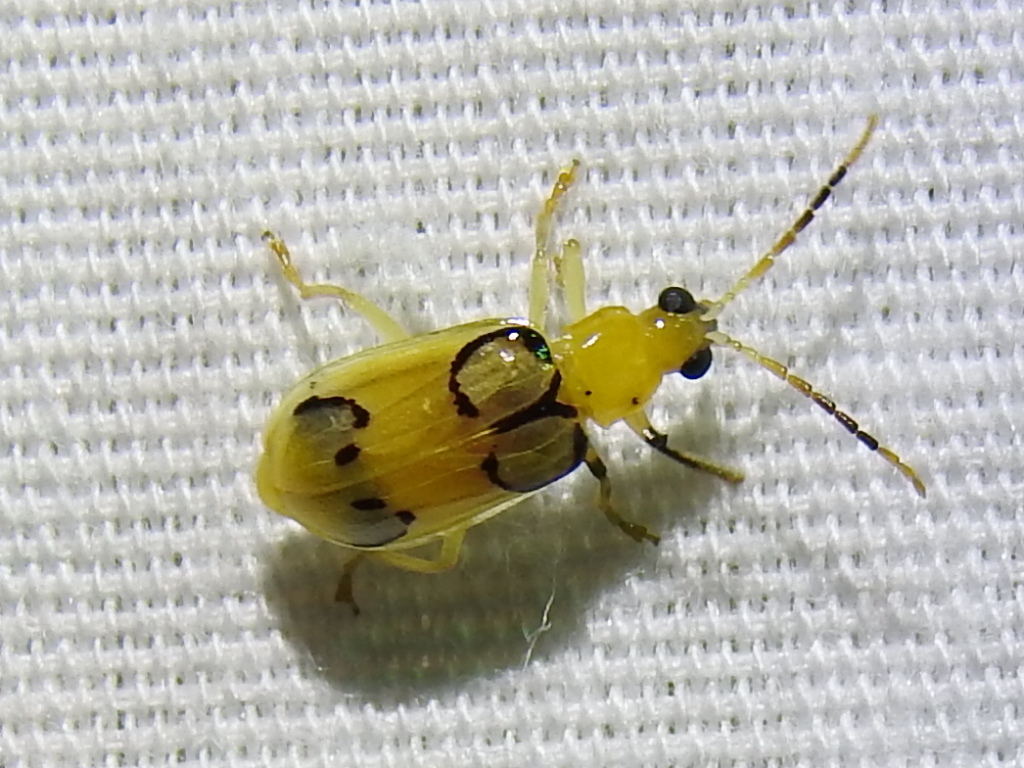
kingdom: Animalia
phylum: Arthropoda
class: Insecta
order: Coleoptera
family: Chrysomelidae
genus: Diabrotica
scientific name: Diabrotica
